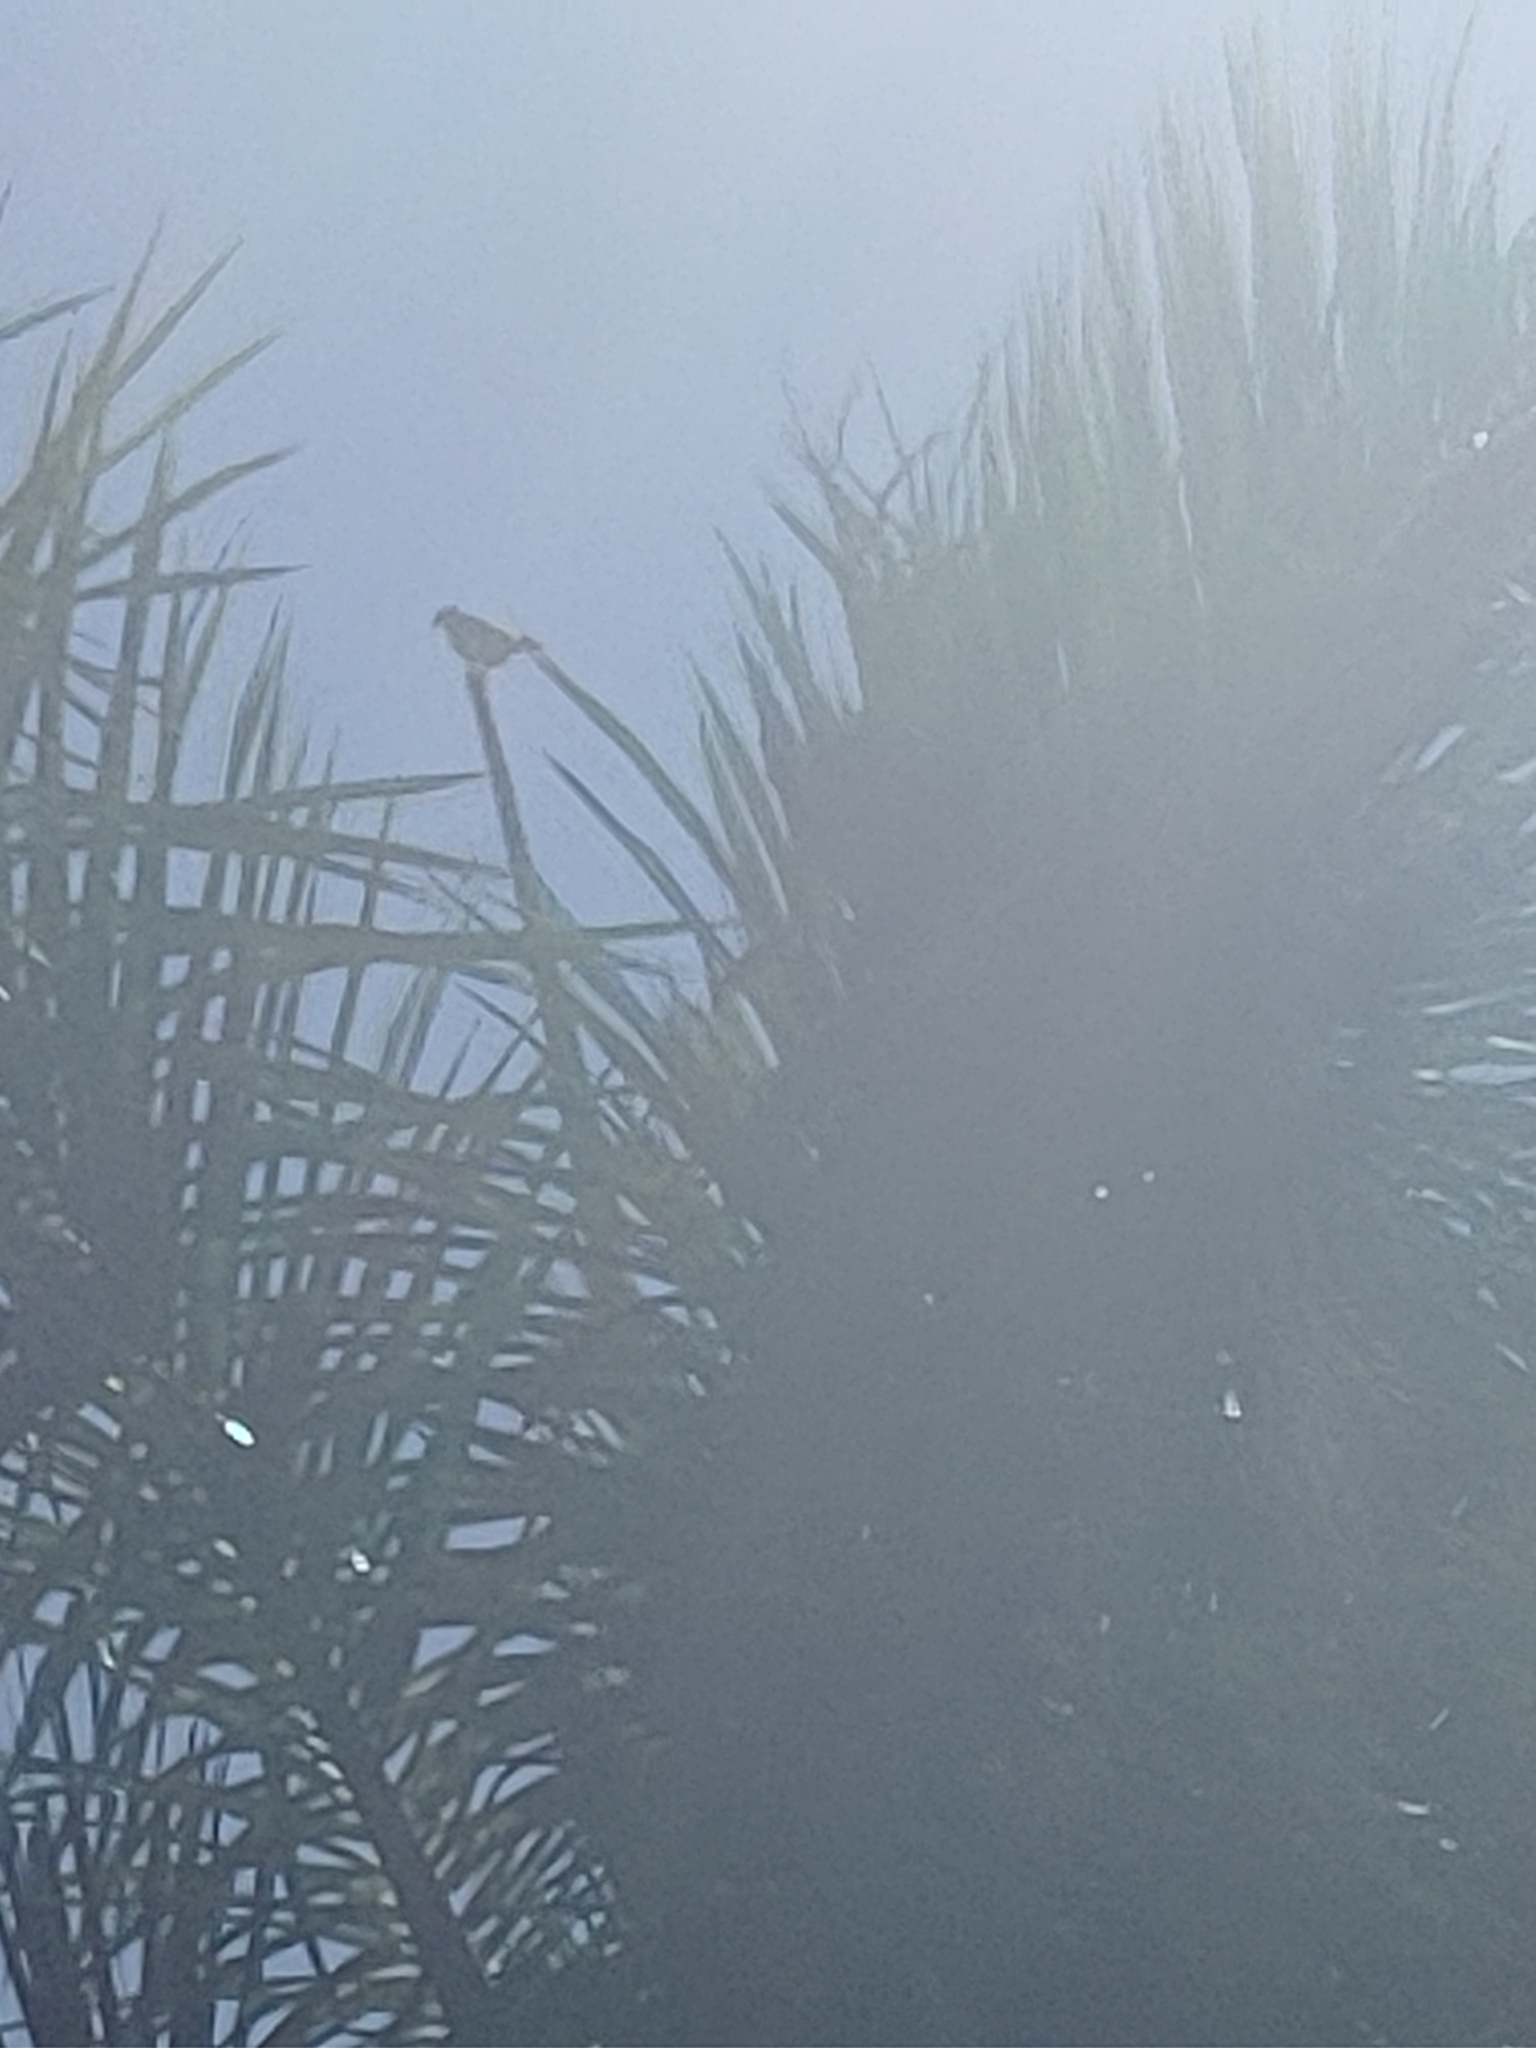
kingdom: Animalia
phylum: Chordata
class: Aves
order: Falconiformes
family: Falconidae
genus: Falco
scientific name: Falco sparverius
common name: American kestrel
